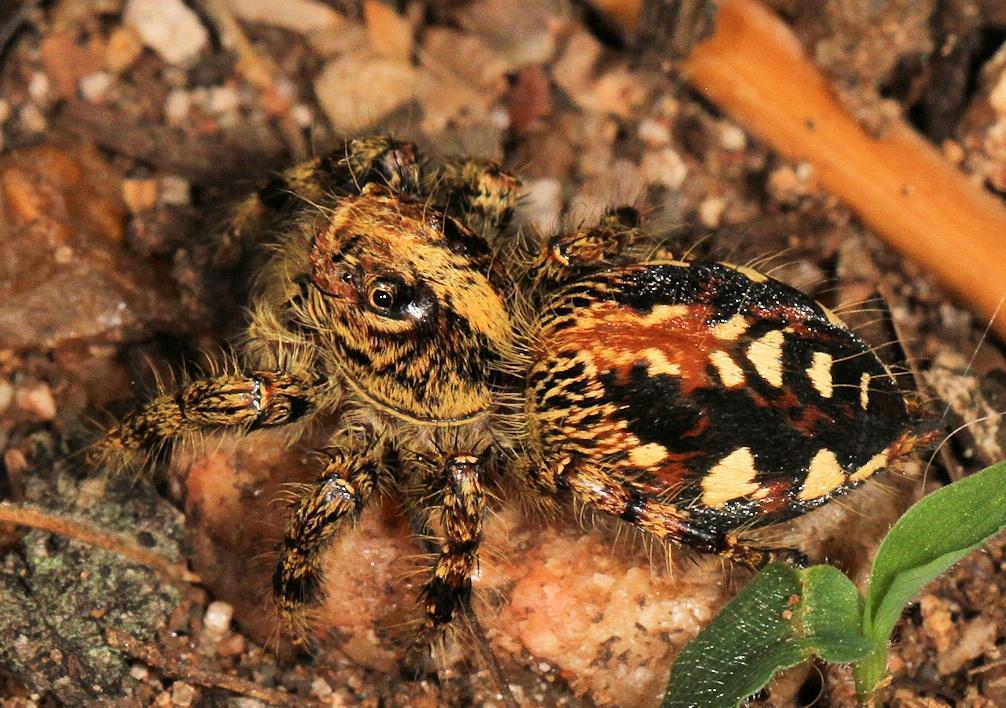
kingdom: Animalia
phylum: Arthropoda
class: Arachnida
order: Araneae
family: Salticidae
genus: Hyllus
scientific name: Hyllus treleaveni
